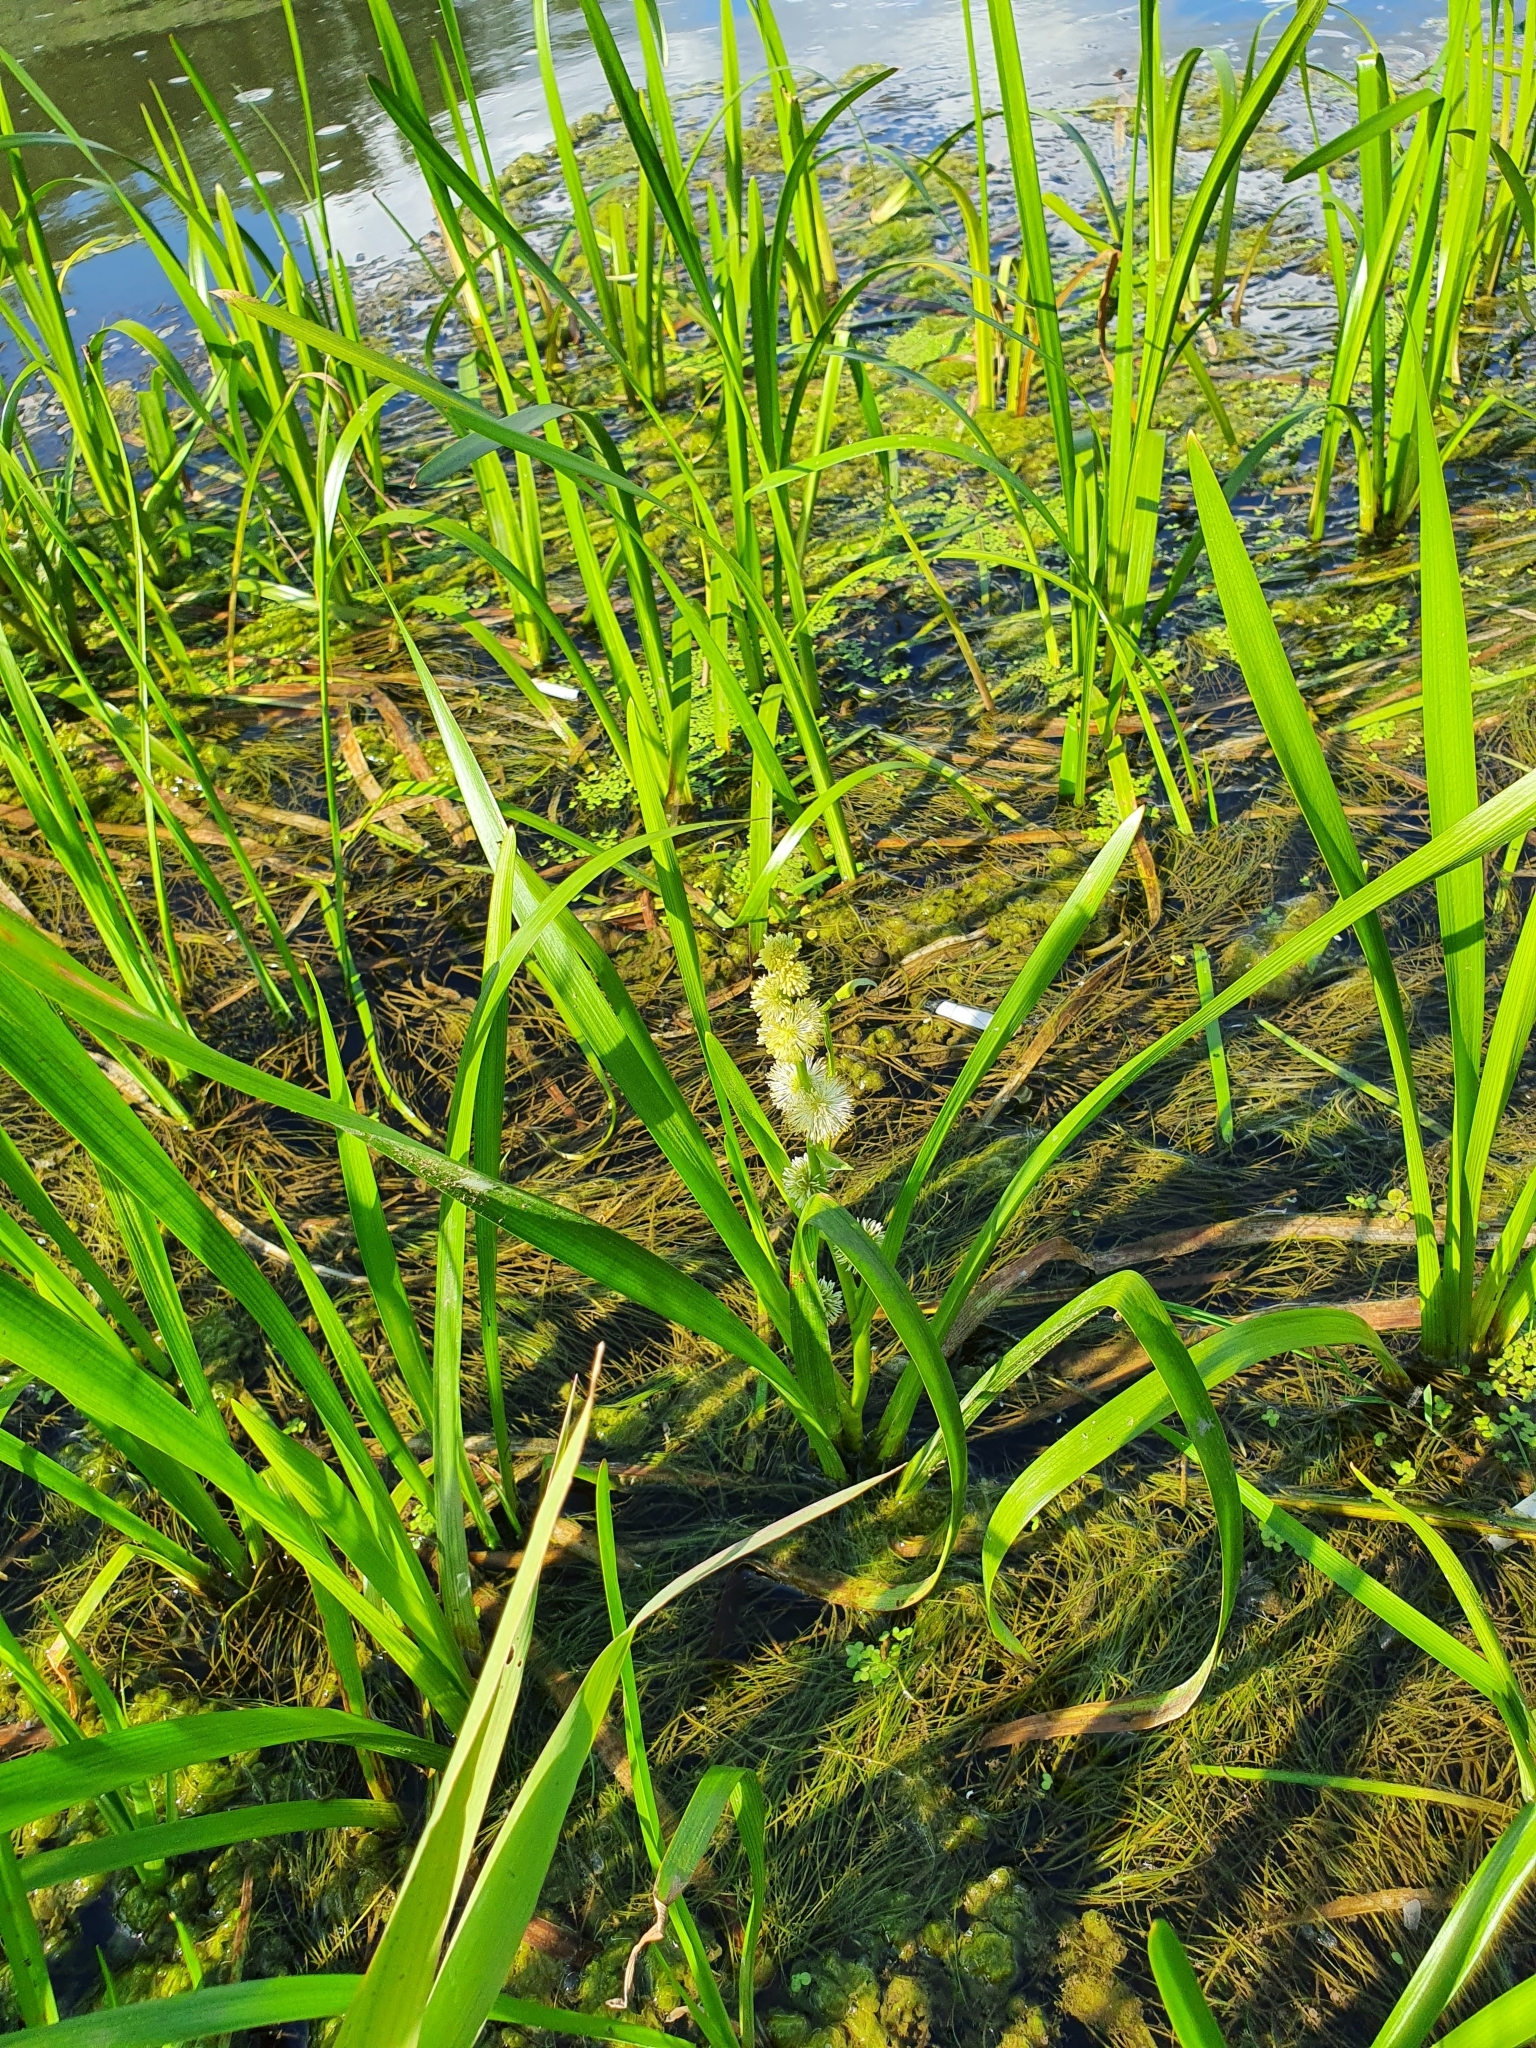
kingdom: Plantae
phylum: Tracheophyta
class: Liliopsida
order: Poales
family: Typhaceae
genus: Sparganium
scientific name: Sparganium emersum
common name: Unbranched bur-reed
